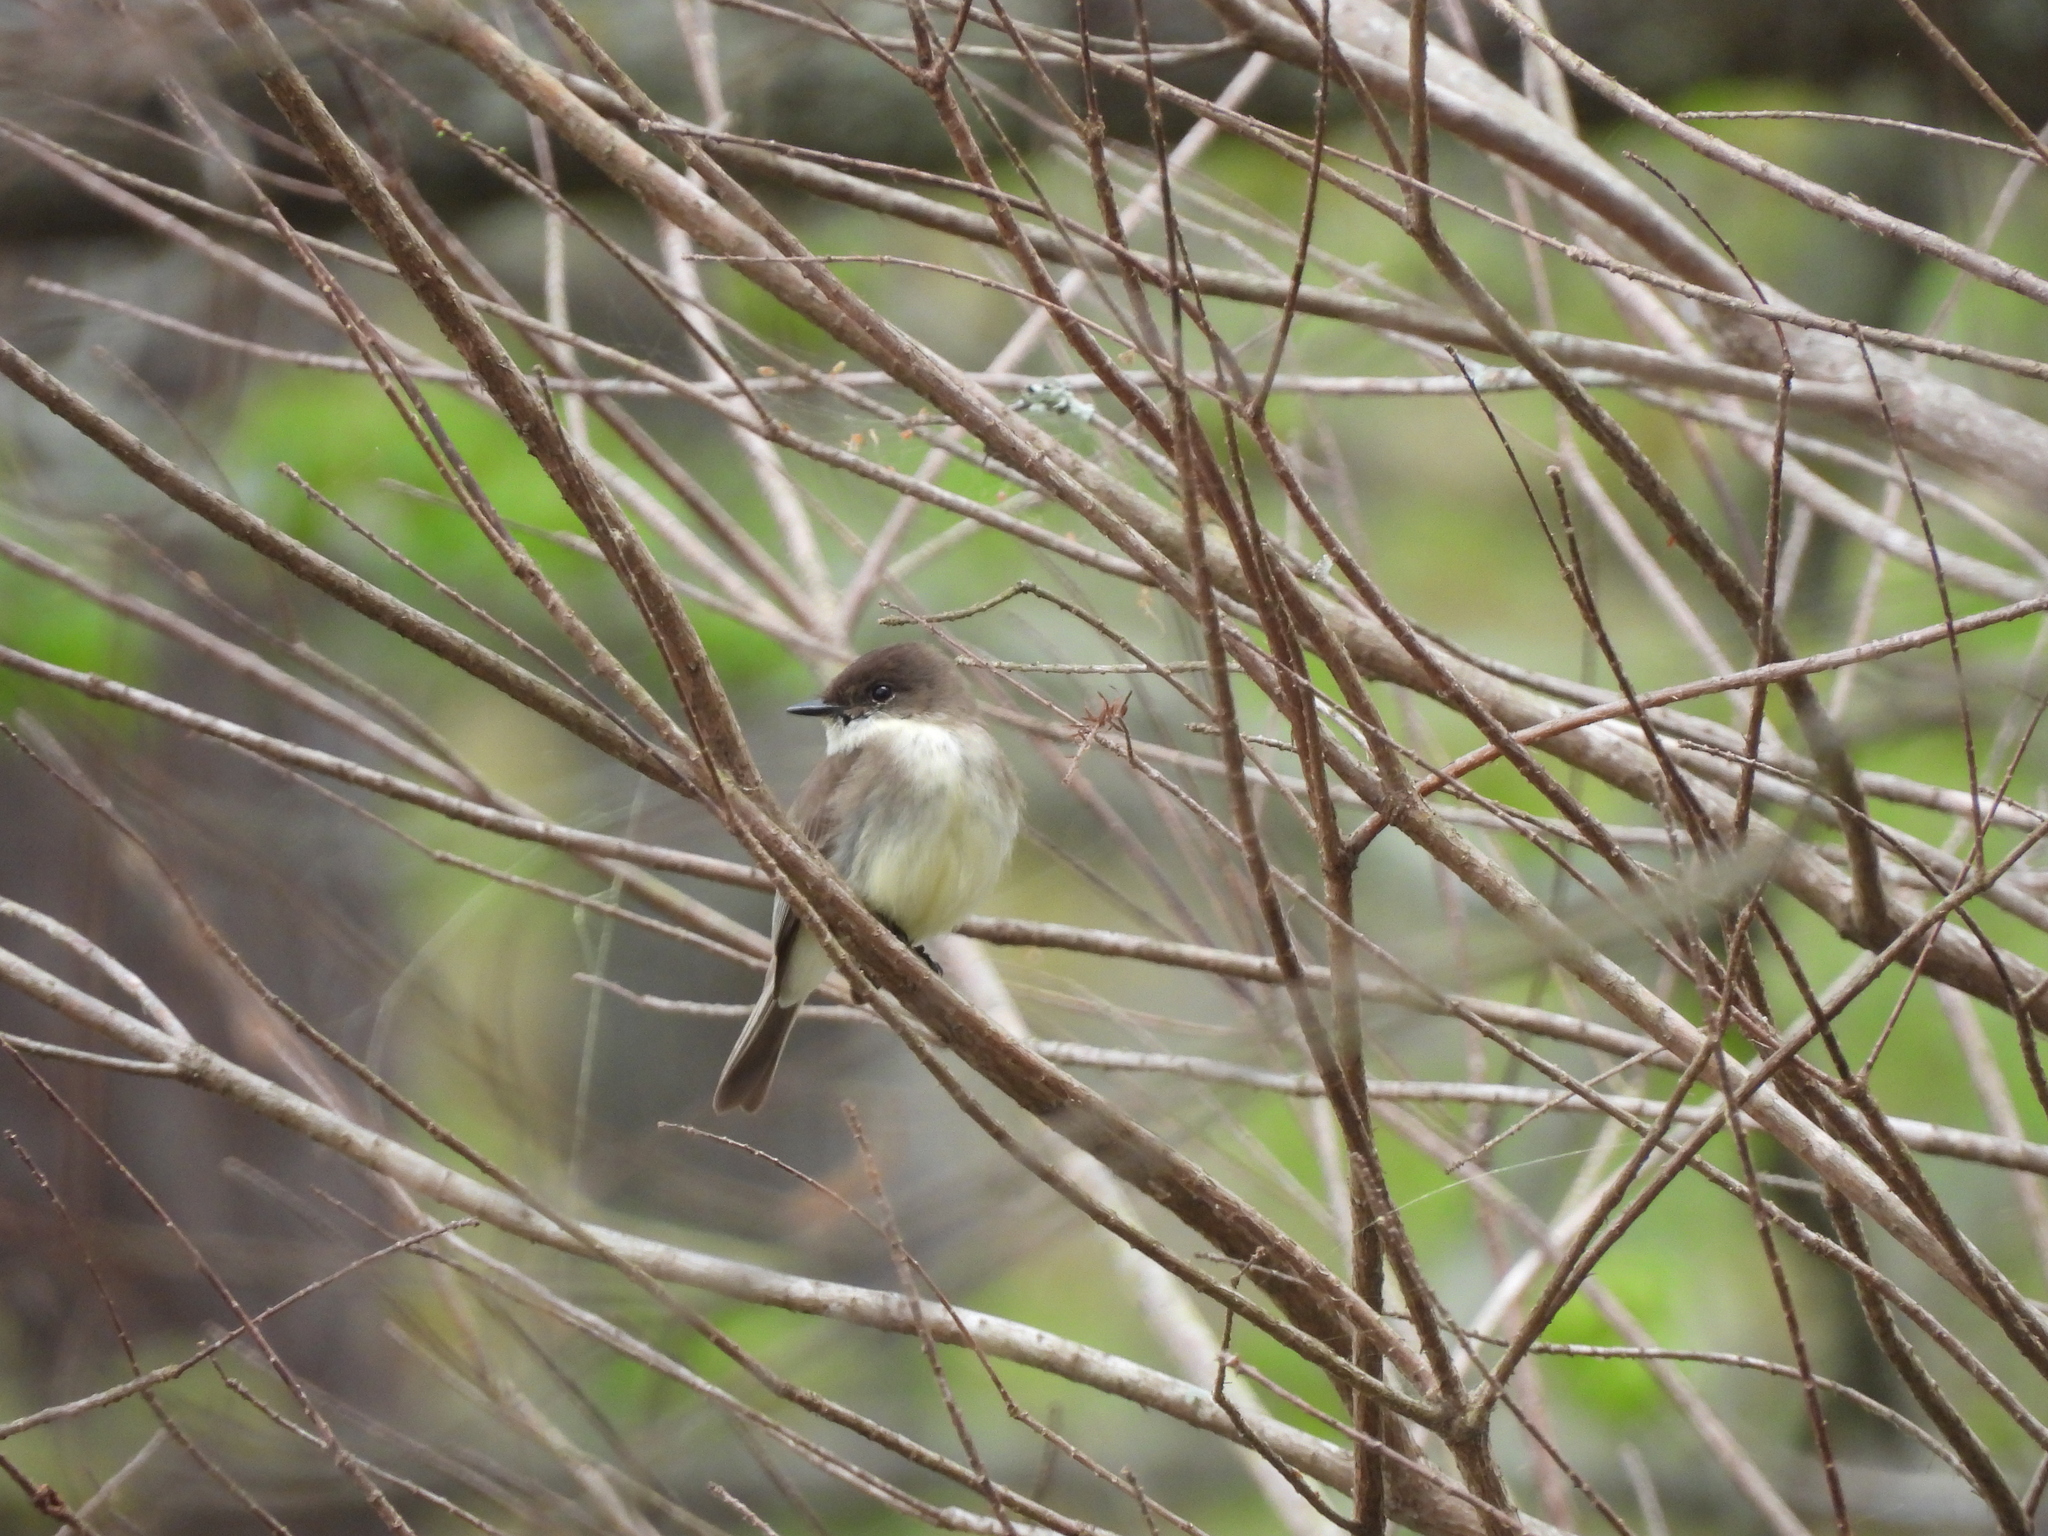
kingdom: Animalia
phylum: Chordata
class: Aves
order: Passeriformes
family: Tyrannidae
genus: Sayornis
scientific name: Sayornis phoebe
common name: Eastern phoebe
